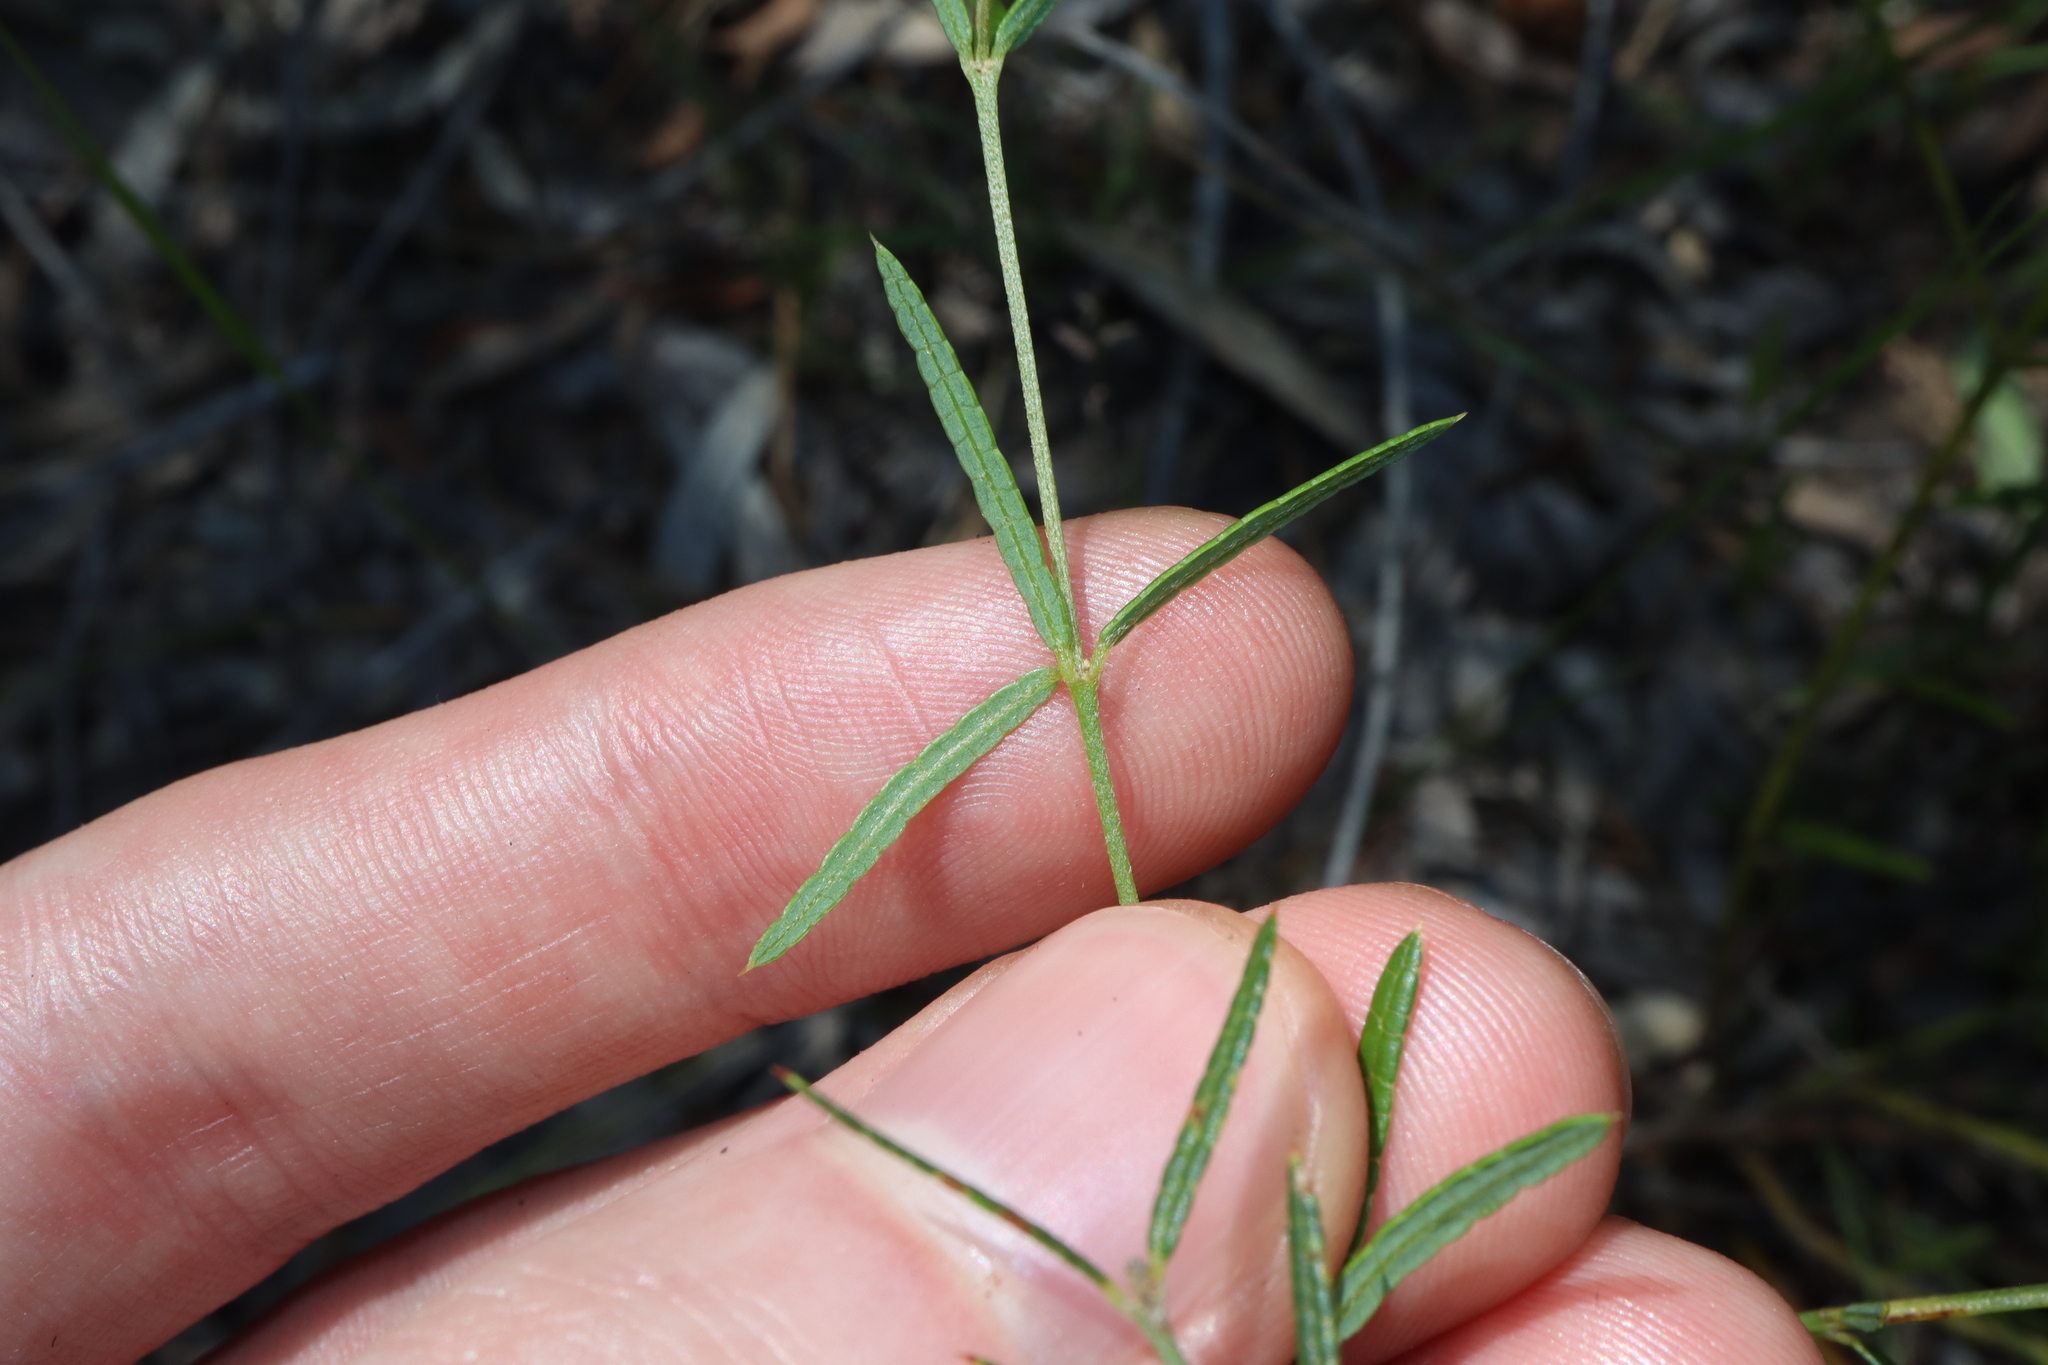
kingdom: Plantae
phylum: Tracheophyta
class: Magnoliopsida
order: Fabales
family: Fabaceae
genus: Mirbelia
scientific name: Mirbelia rubiifolia
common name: Heathy mirbelia
